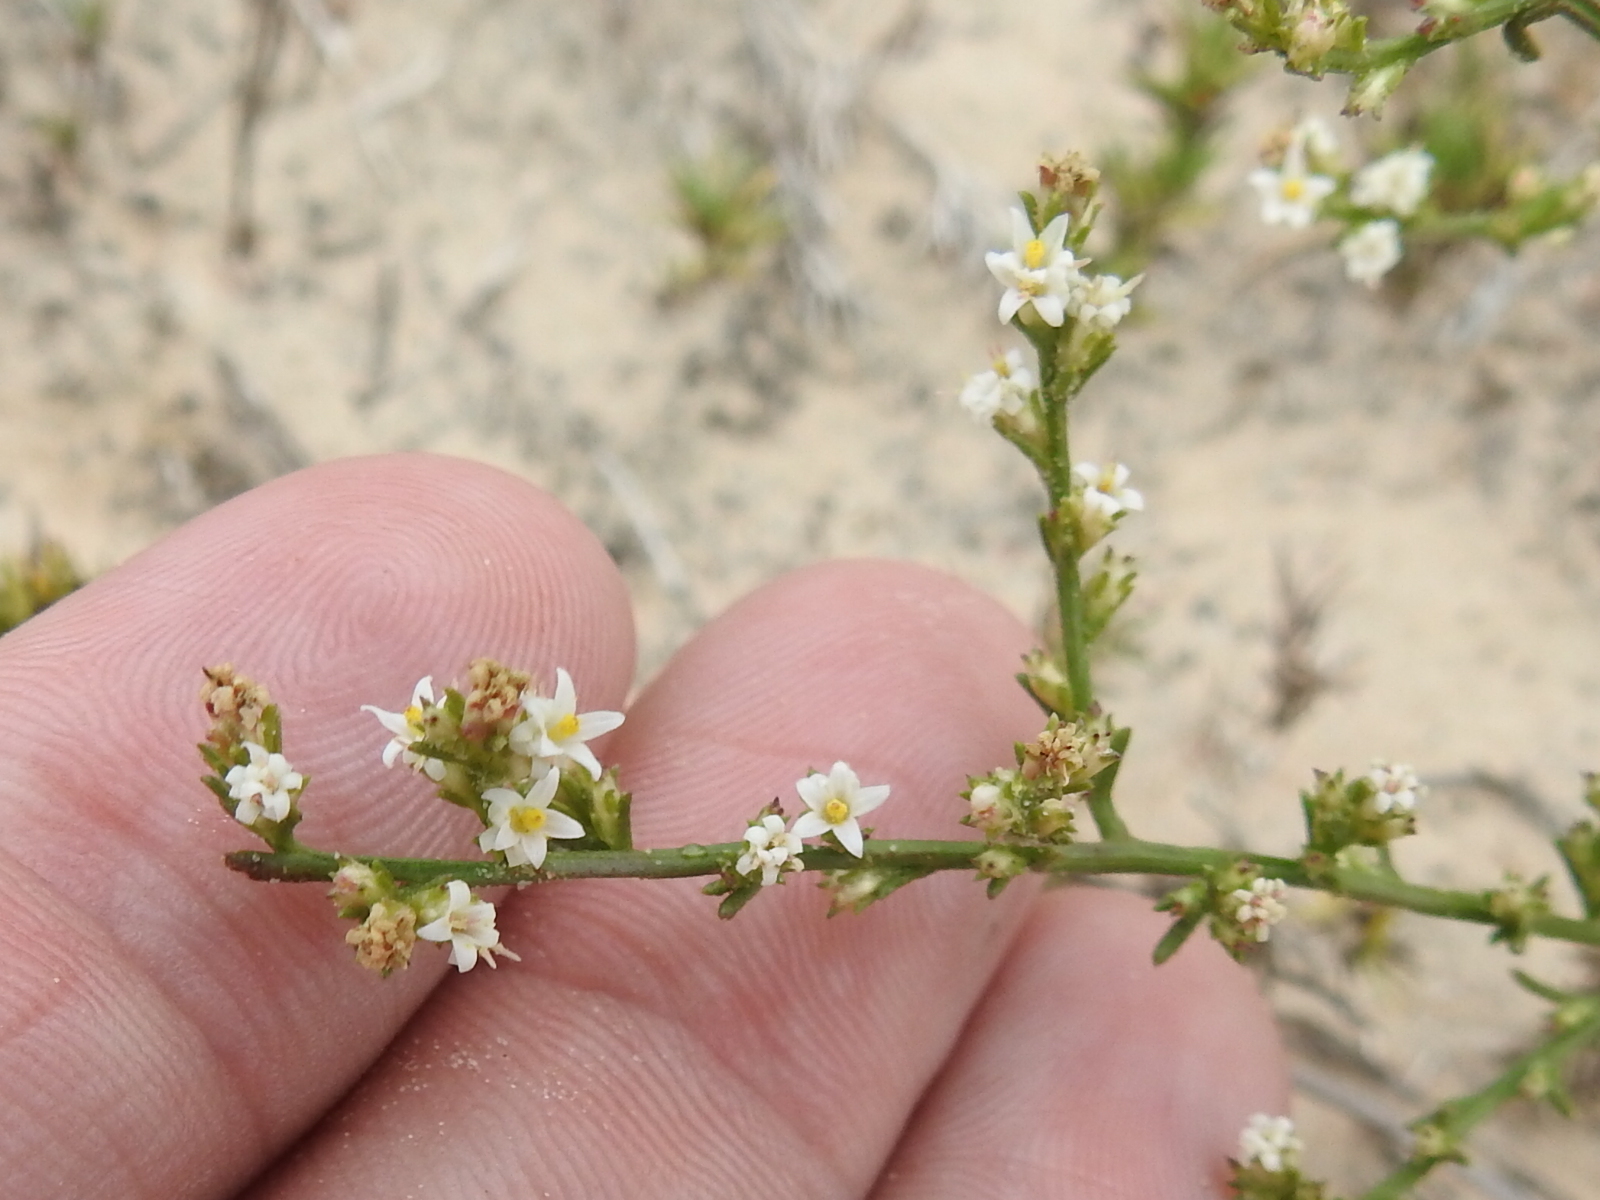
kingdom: Plantae
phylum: Tracheophyta
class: Magnoliopsida
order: Asterales
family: Asteraceae
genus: Thurovia
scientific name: Thurovia triflora
